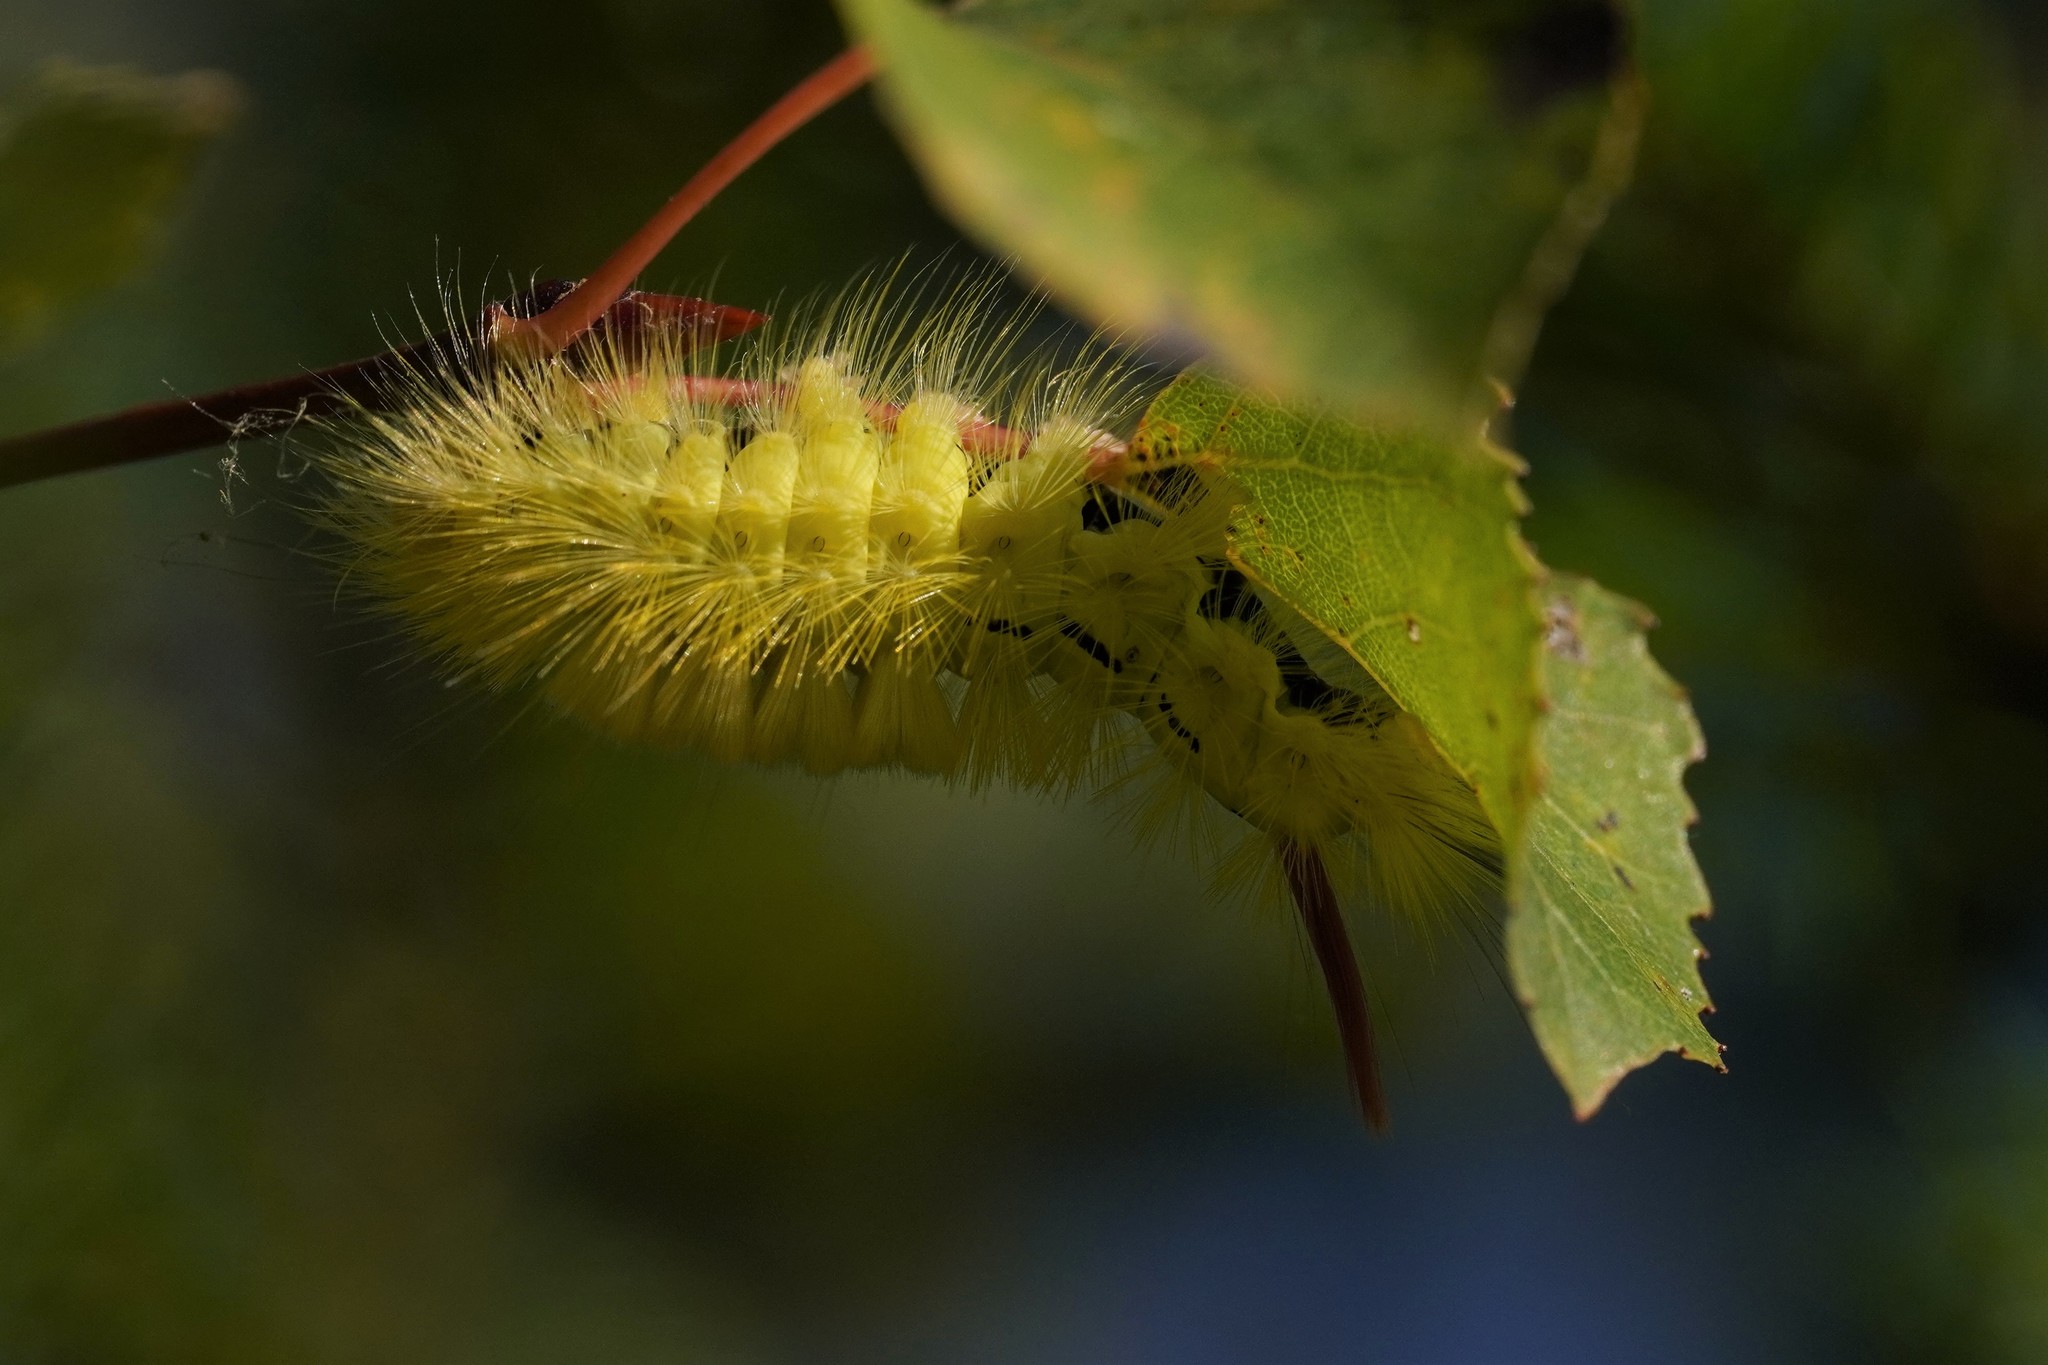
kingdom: Animalia
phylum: Arthropoda
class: Insecta
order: Lepidoptera
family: Erebidae
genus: Calliteara
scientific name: Calliteara pudibunda
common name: Pale tussock
